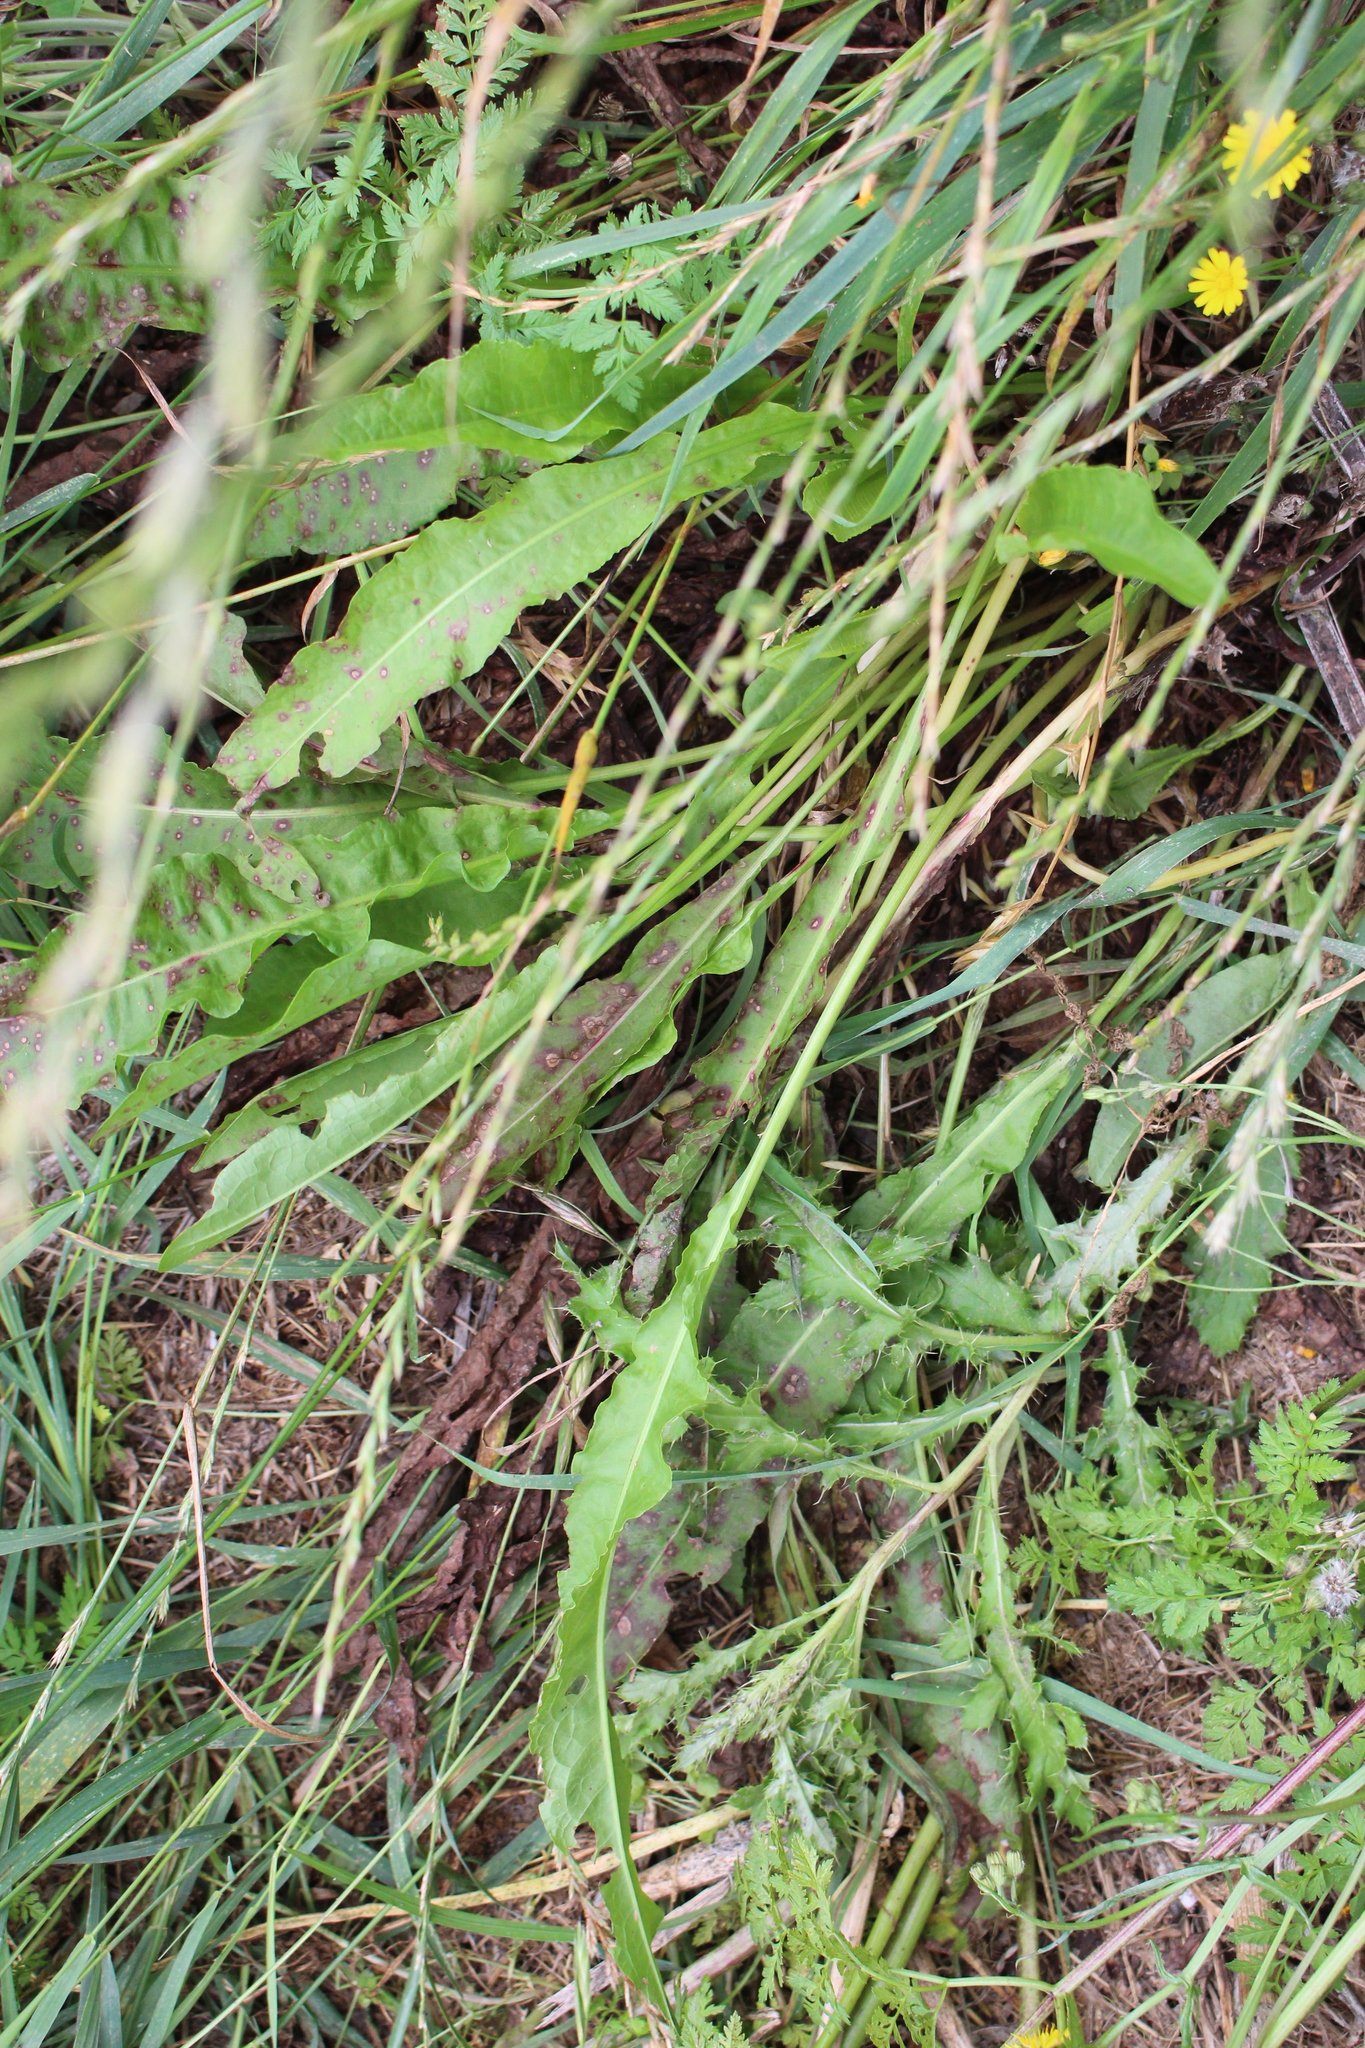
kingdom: Plantae
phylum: Tracheophyta
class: Magnoliopsida
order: Caryophyllales
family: Polygonaceae
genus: Rumex
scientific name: Rumex crispus
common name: Curled dock
